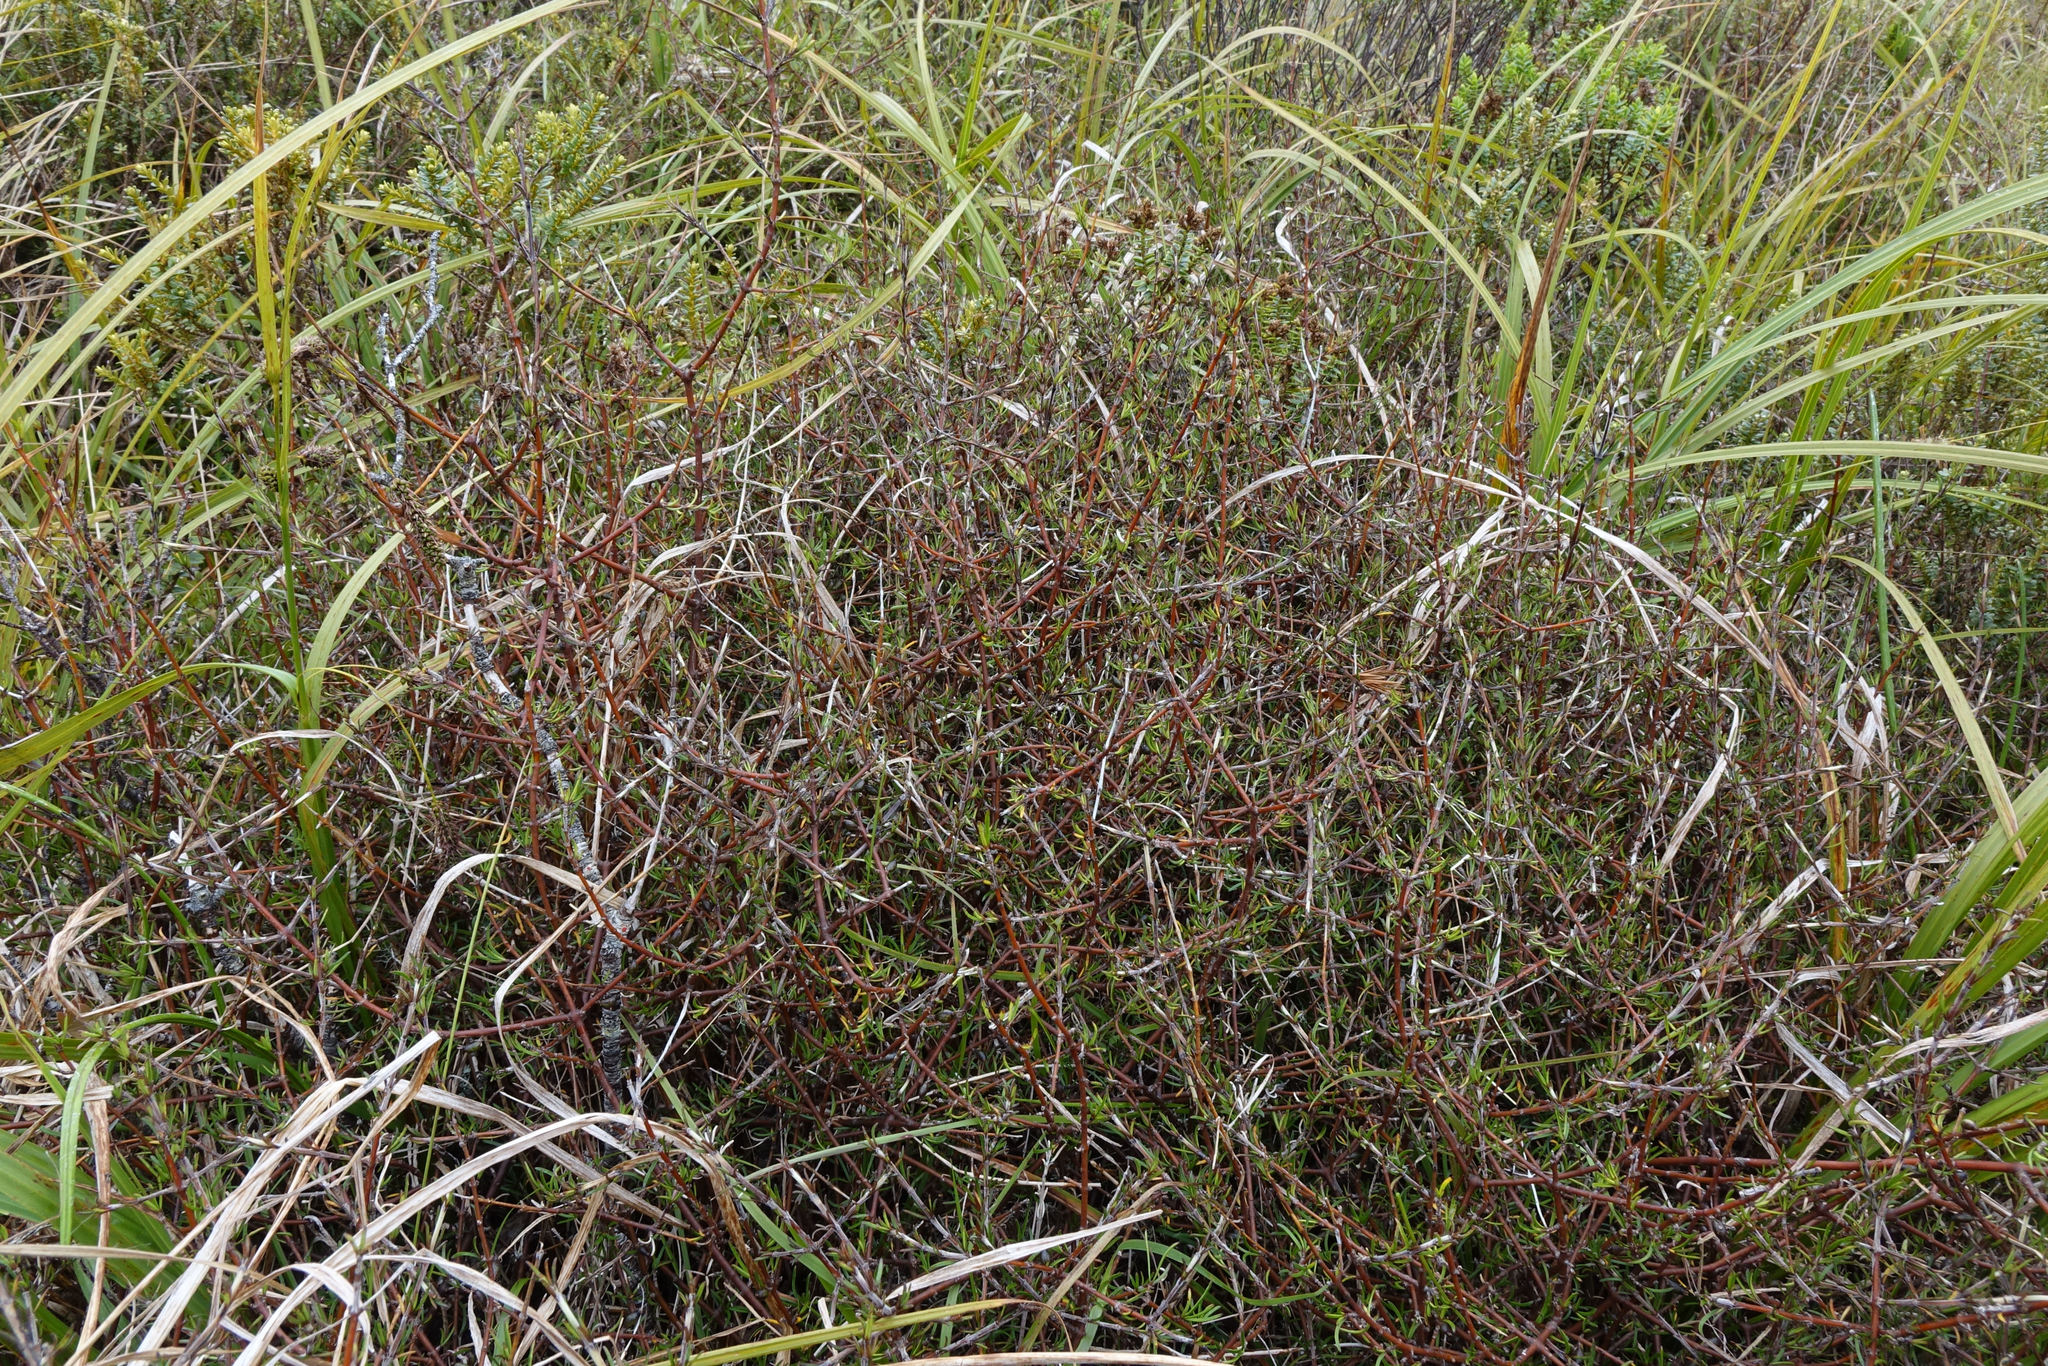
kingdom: Plantae
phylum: Tracheophyta
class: Magnoliopsida
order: Gentianales
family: Rubiaceae
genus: Coprosma
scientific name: Coprosma elatirioides
